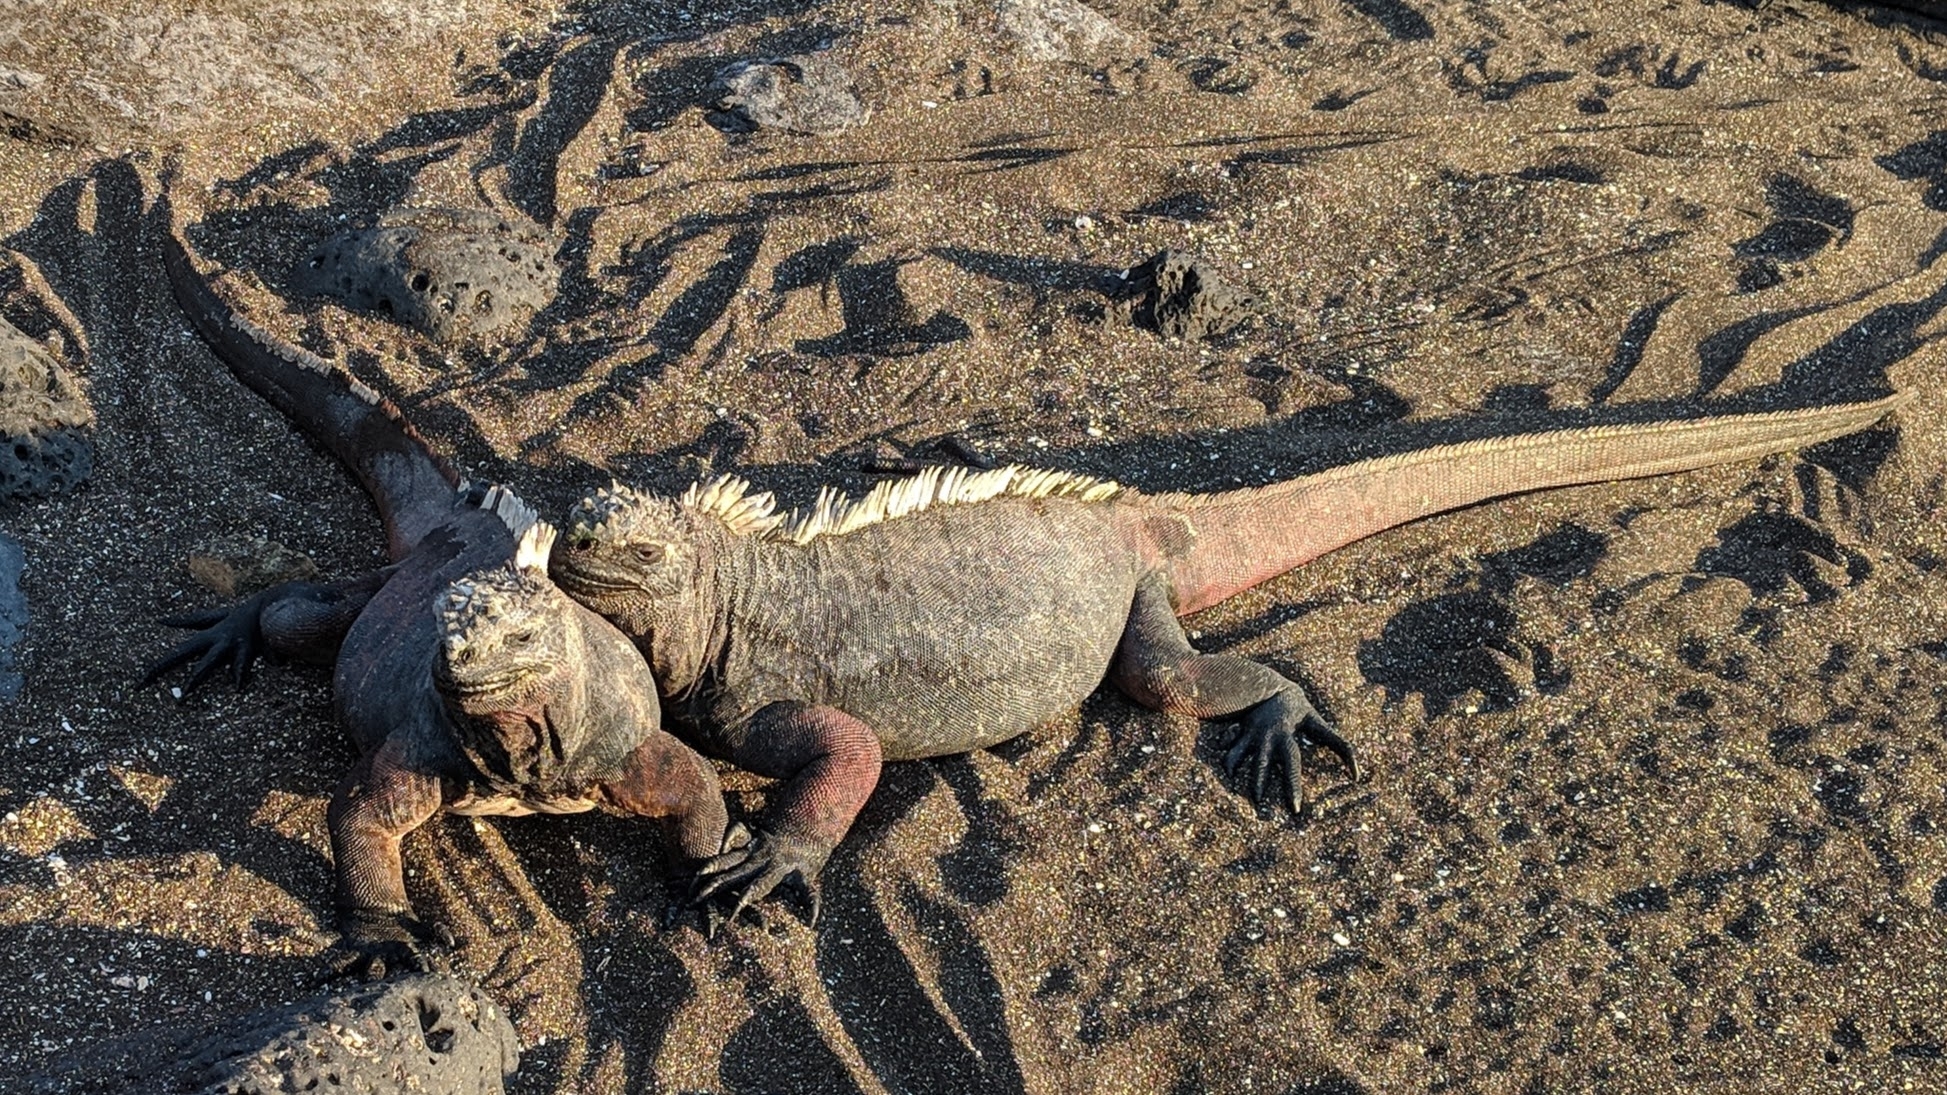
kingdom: Animalia
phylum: Chordata
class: Squamata
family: Iguanidae
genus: Amblyrhynchus
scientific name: Amblyrhynchus cristatus
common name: Marine iguana
